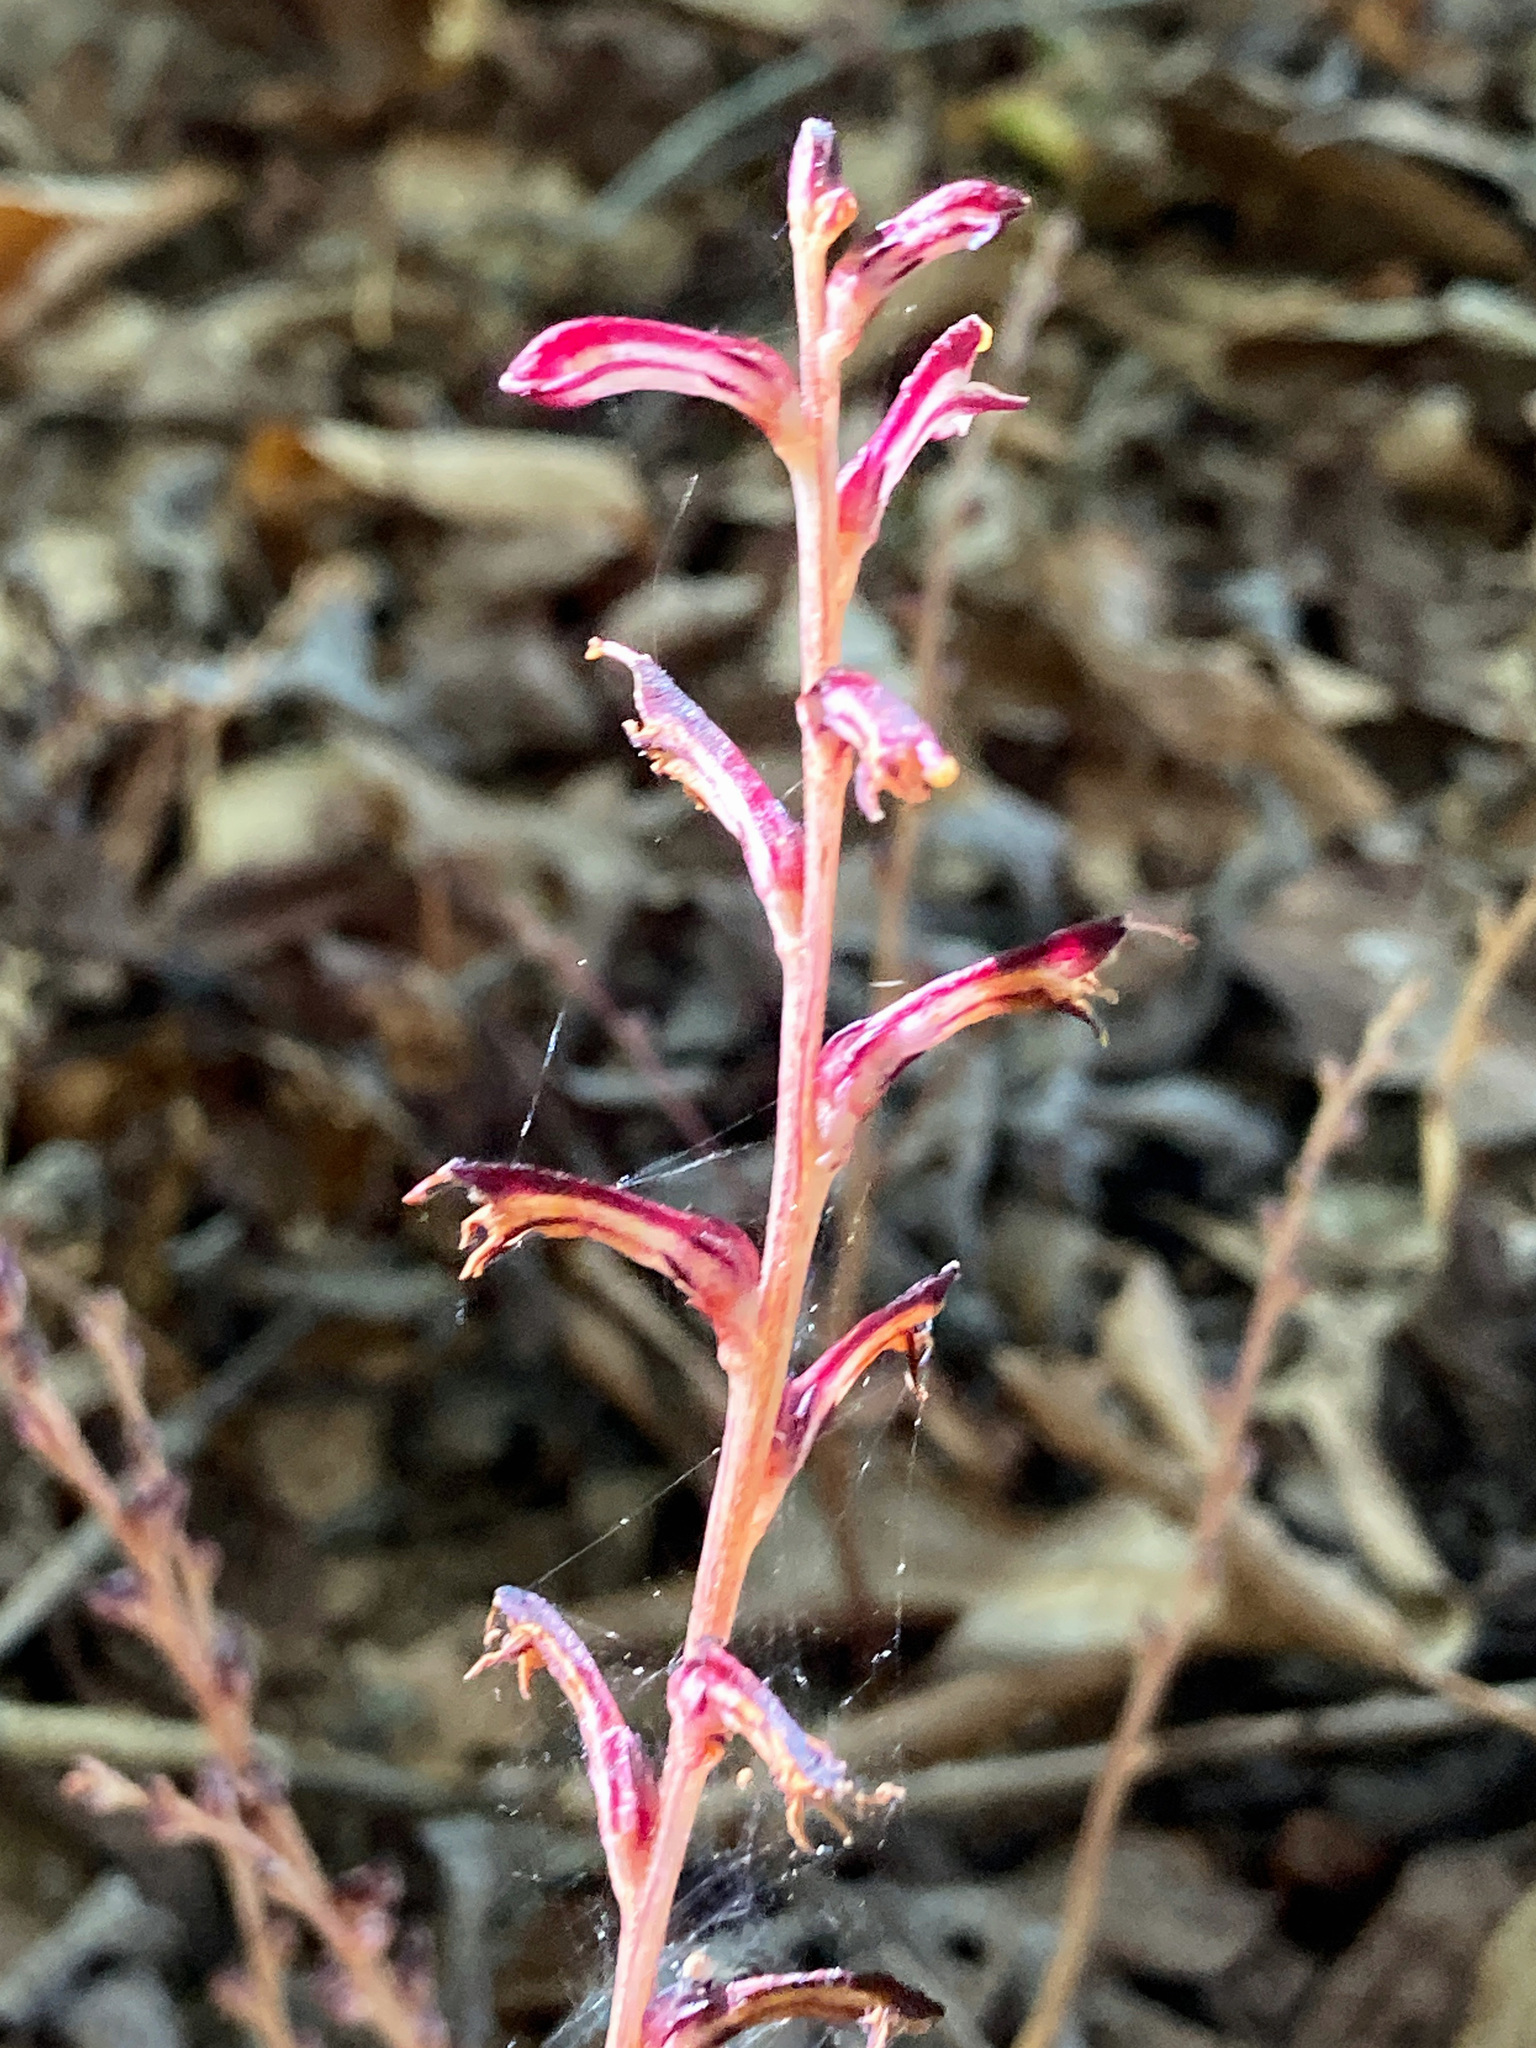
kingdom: Plantae
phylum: Tracheophyta
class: Magnoliopsida
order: Lamiales
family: Orobanchaceae
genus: Epifagus
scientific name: Epifagus virginiana
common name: Beechdrops
